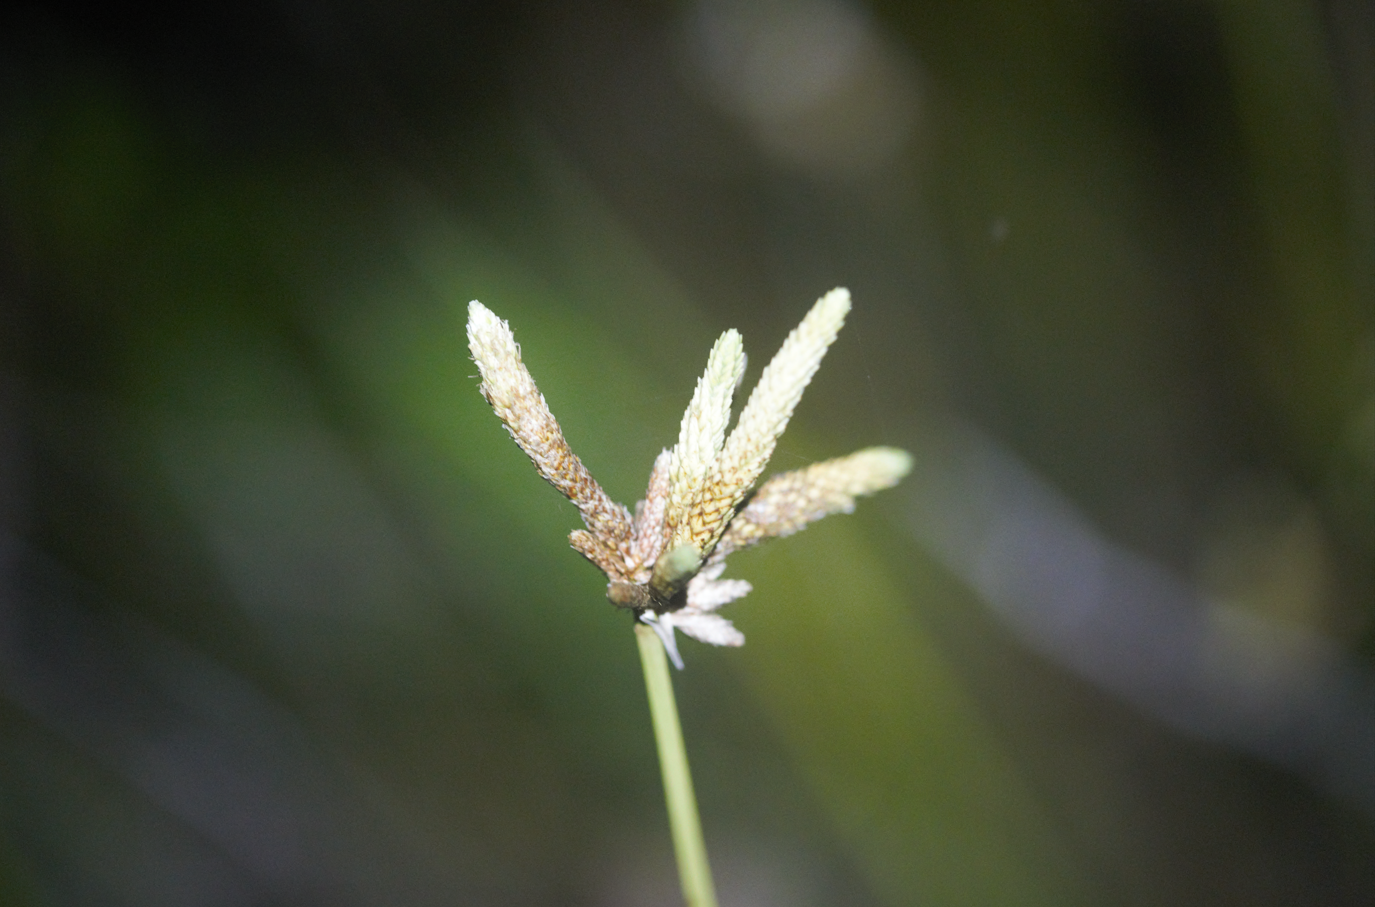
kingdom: Plantae
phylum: Tracheophyta
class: Liliopsida
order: Poales
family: Cyperaceae
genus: Hypolytrum
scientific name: Hypolytrum pulchrum
